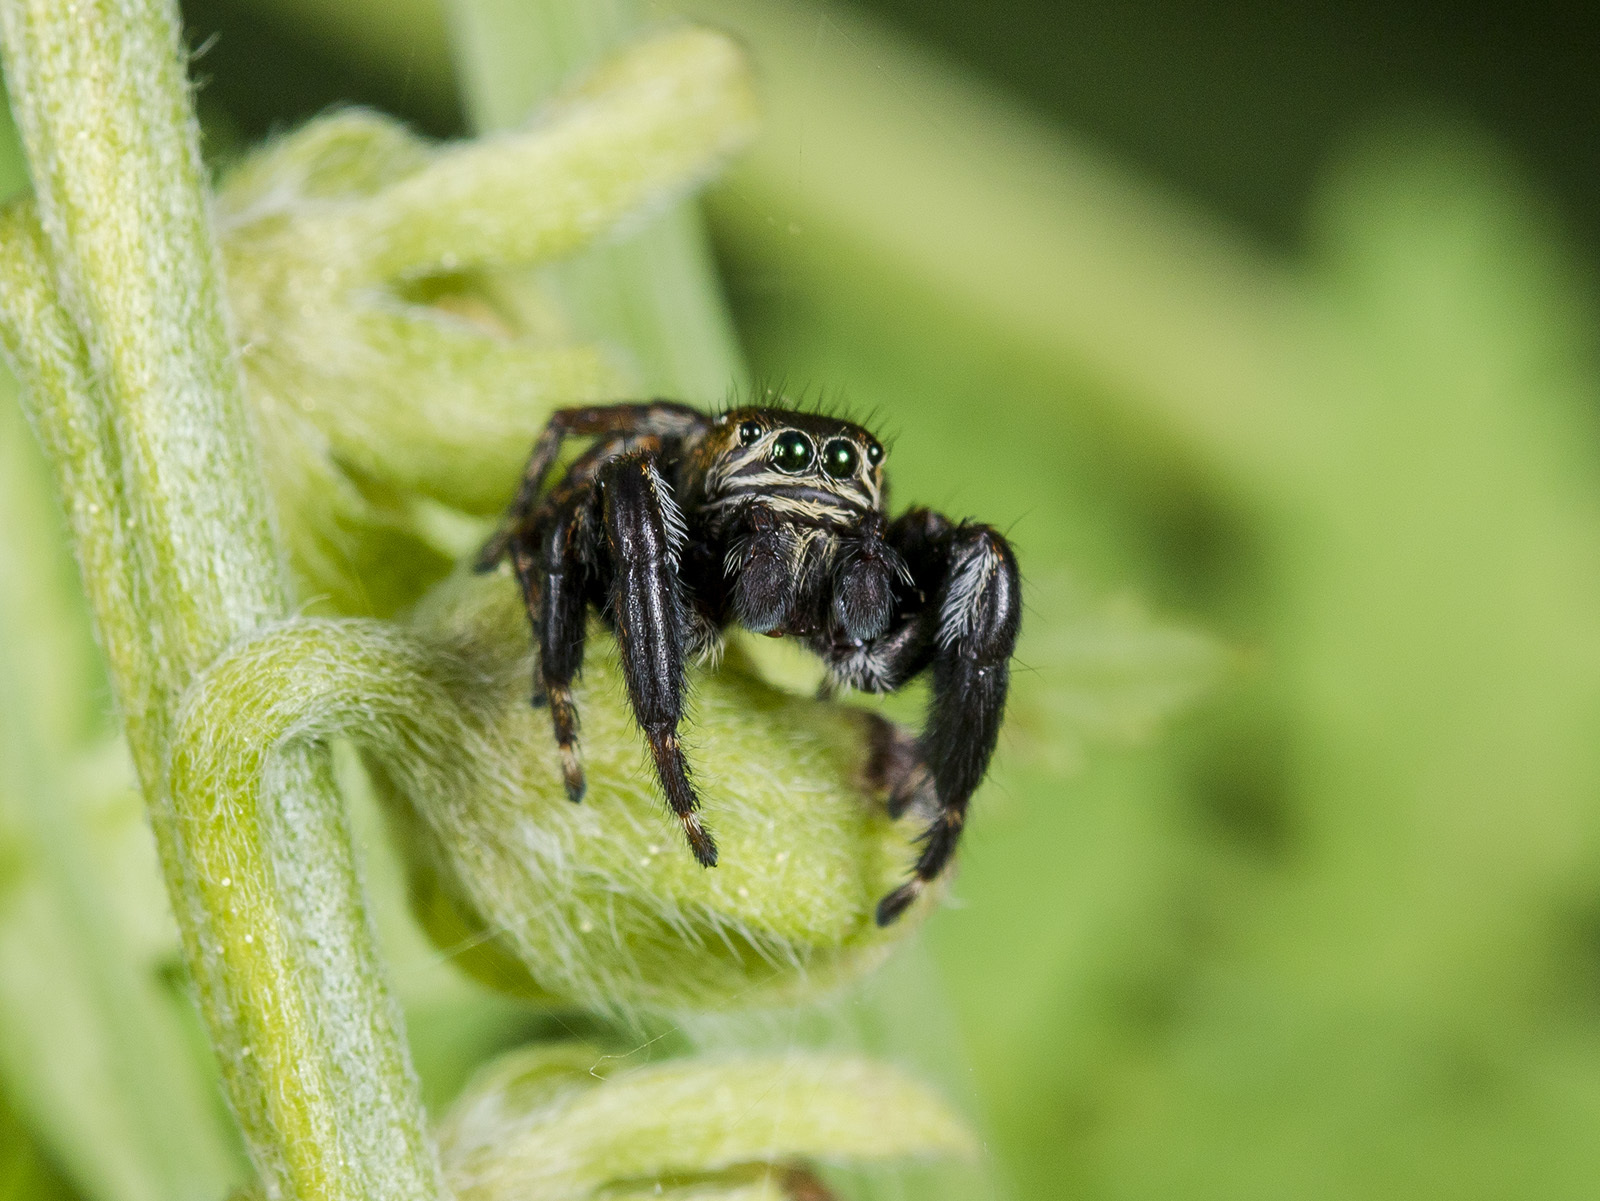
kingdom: Animalia
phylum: Arthropoda
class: Arachnida
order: Araneae
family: Salticidae
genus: Evarcha
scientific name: Evarcha arcuata
